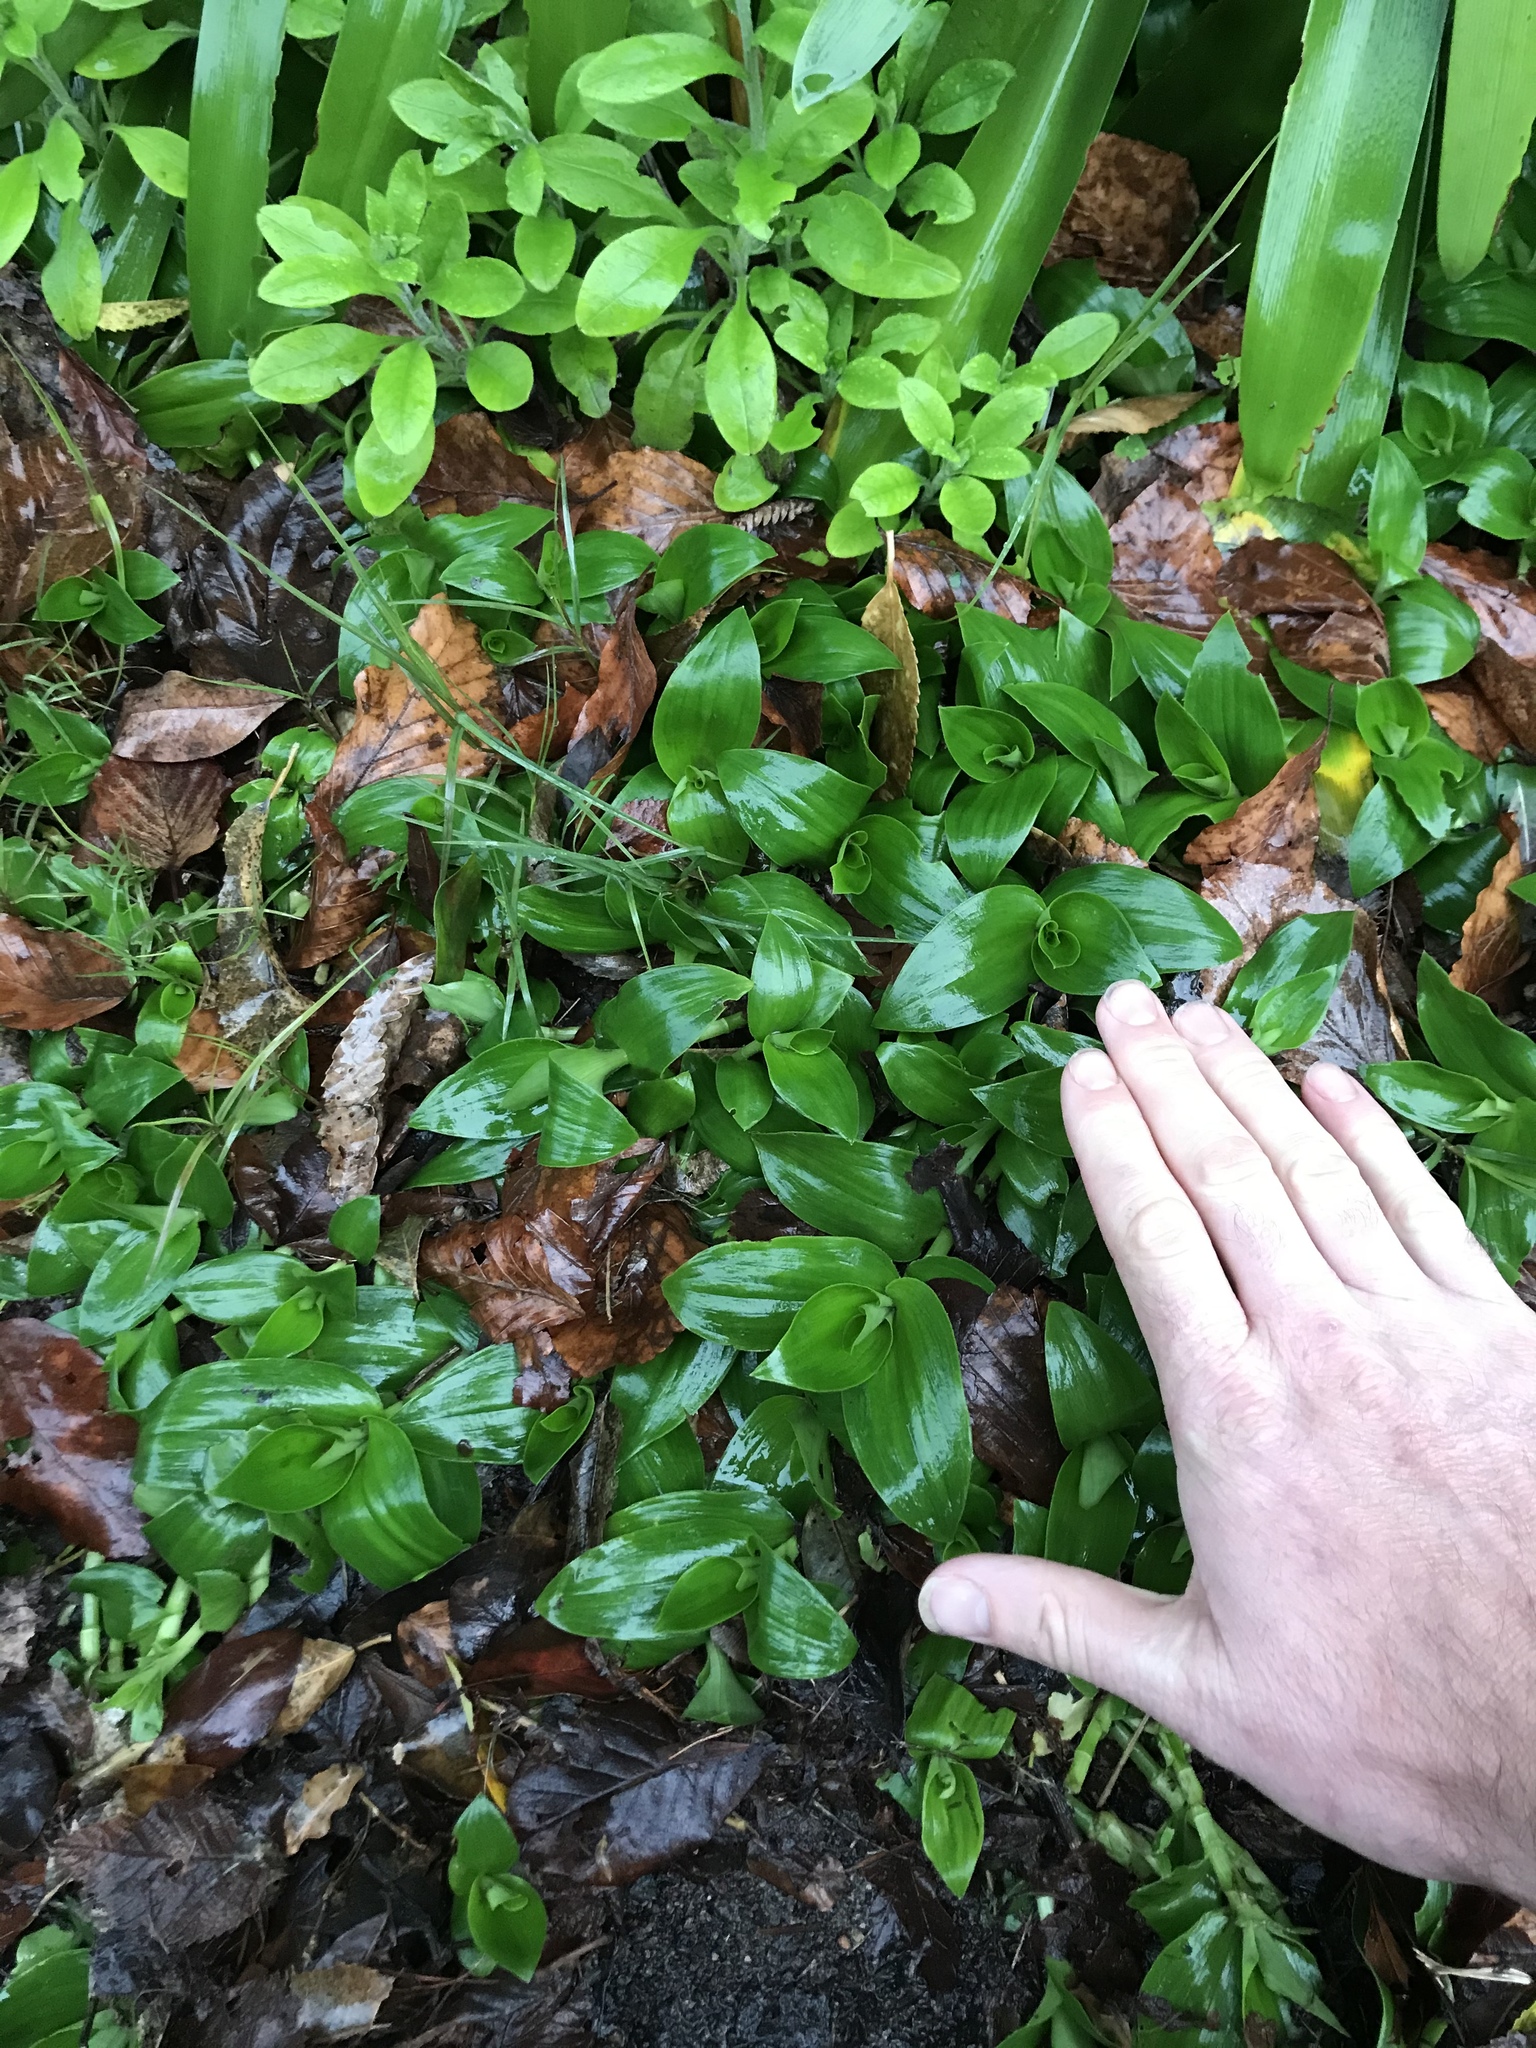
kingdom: Plantae
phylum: Tracheophyta
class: Liliopsida
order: Commelinales
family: Commelinaceae
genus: Tradescantia
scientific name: Tradescantia fluminensis
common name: Wandering-jew
